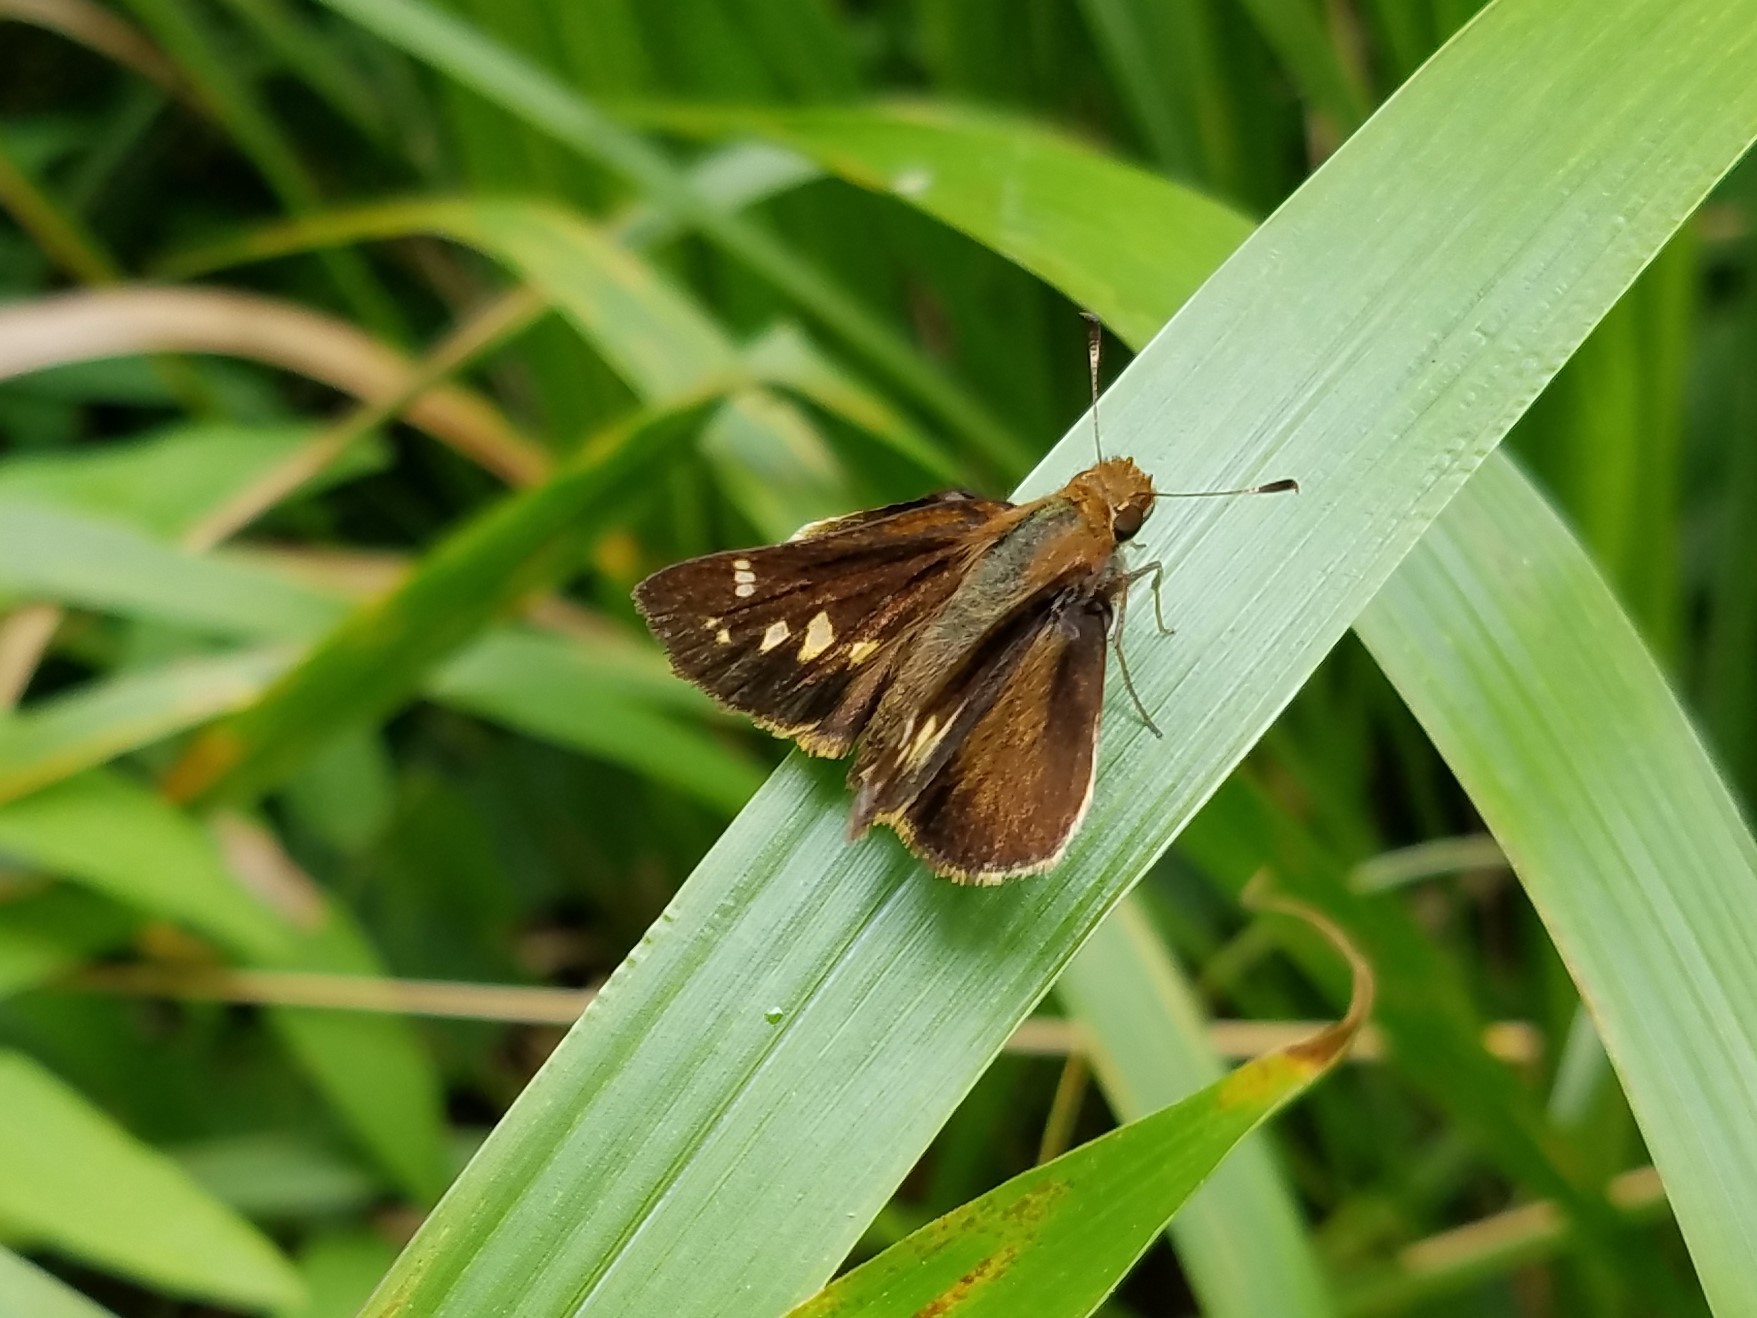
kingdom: Animalia
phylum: Arthropoda
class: Insecta
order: Lepidoptera
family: Hesperiidae
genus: Lon
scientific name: Lon zabulon
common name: Zabulon skipper
